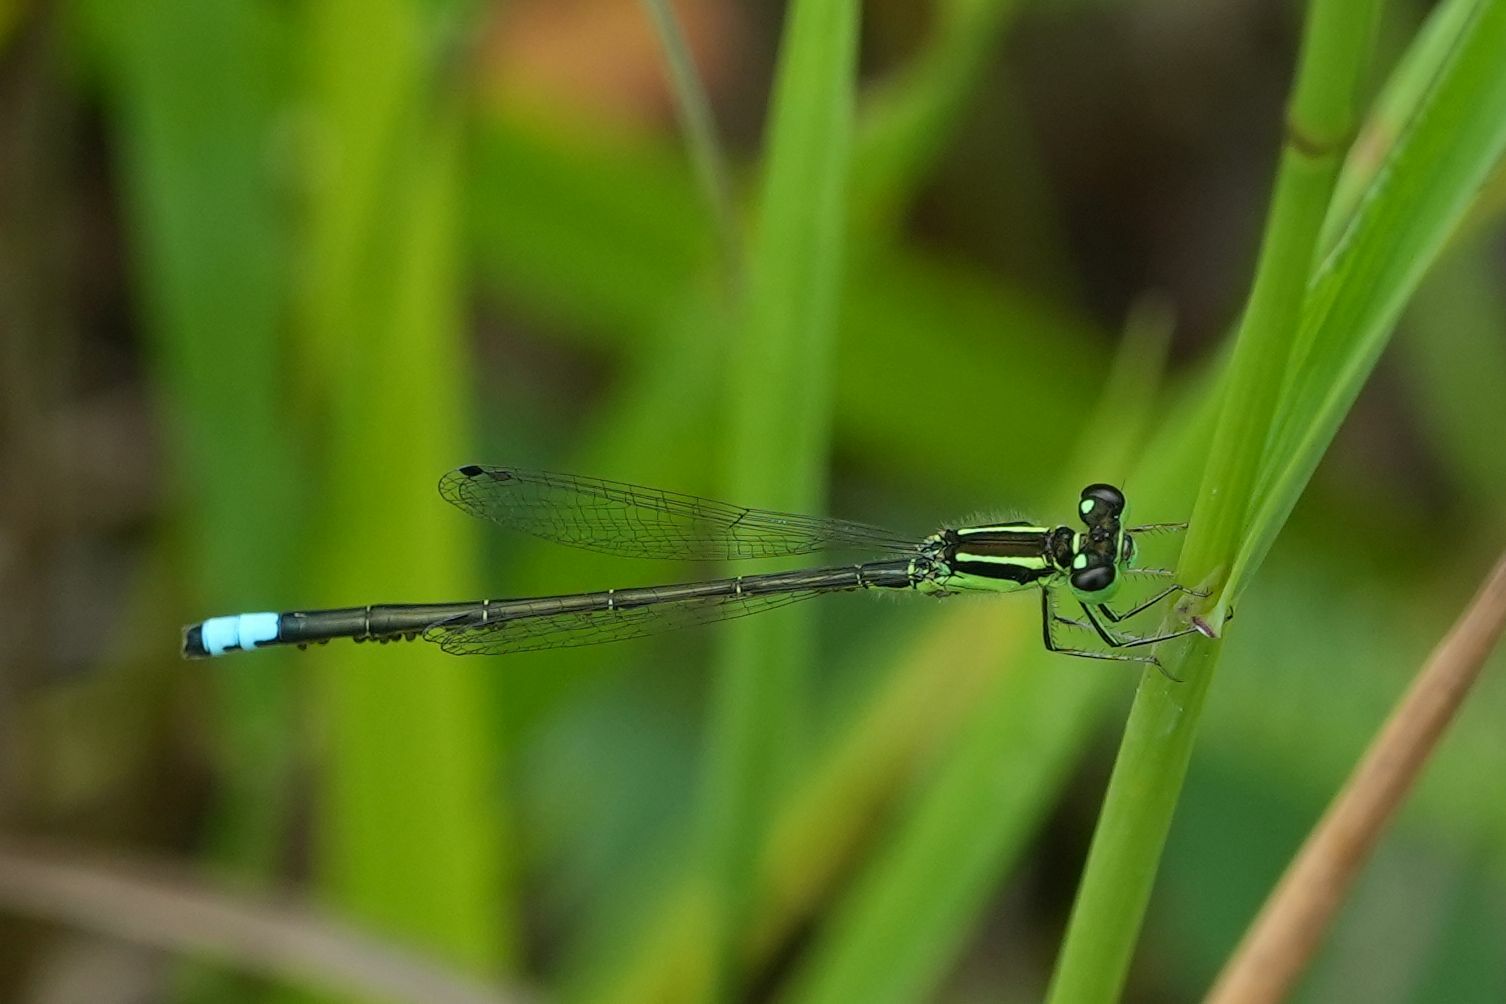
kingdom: Animalia
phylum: Arthropoda
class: Insecta
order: Odonata
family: Coenagrionidae
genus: Ischnura
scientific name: Ischnura verticalis
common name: Eastern forktail
